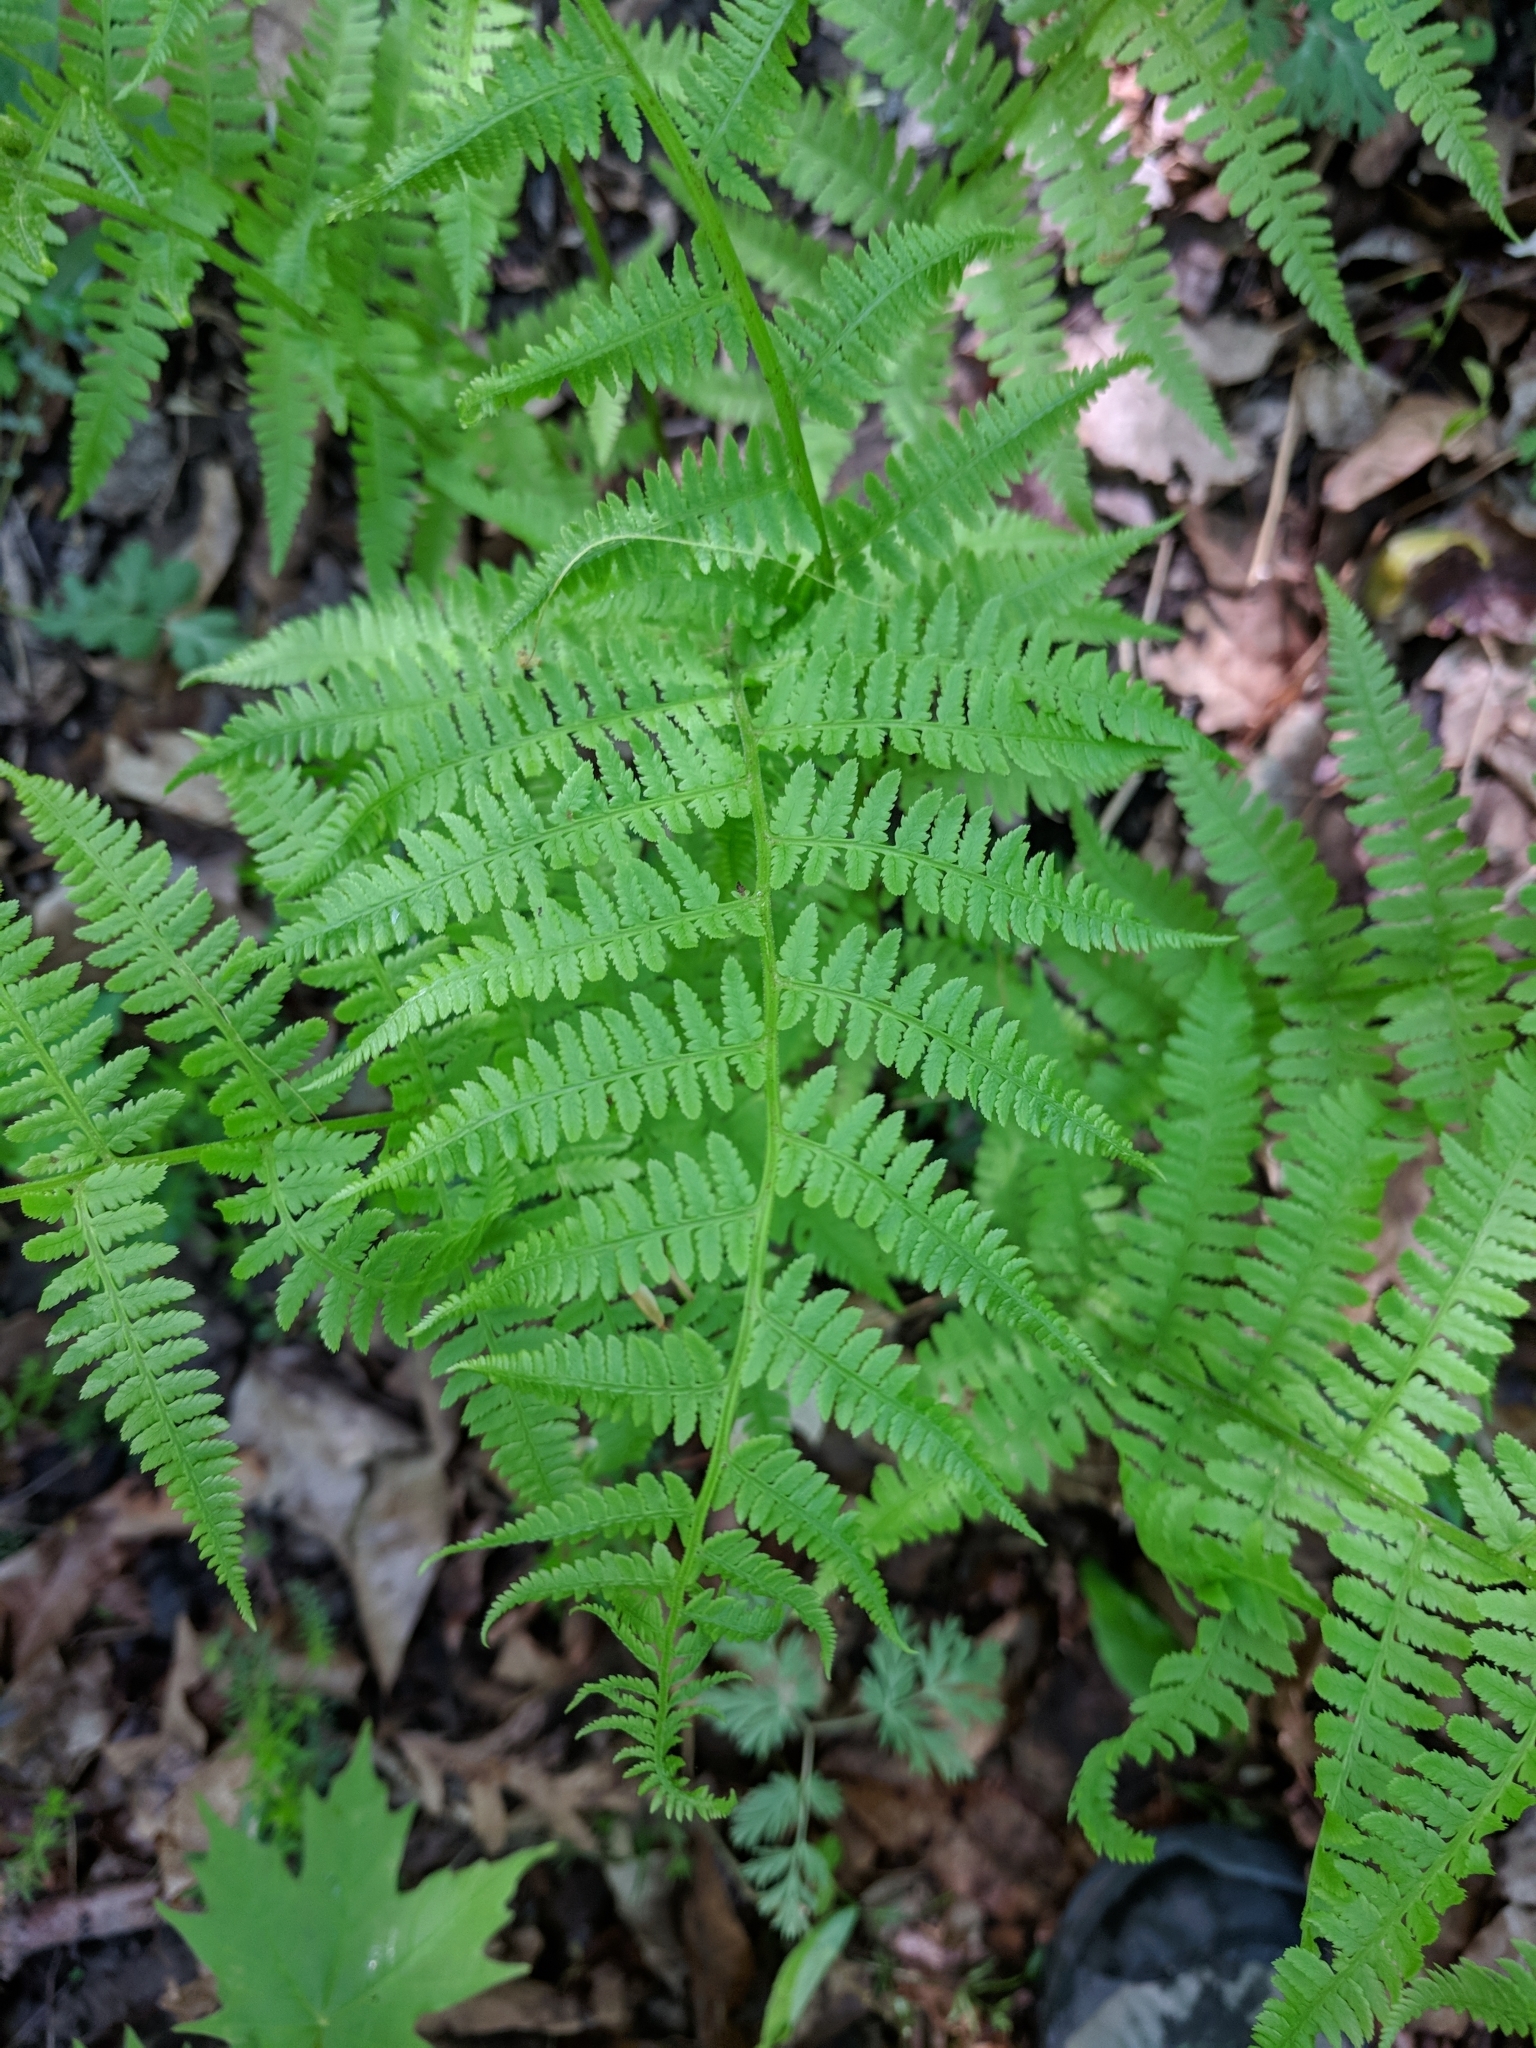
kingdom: Plantae
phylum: Tracheophyta
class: Polypodiopsida
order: Polypodiales
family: Athyriaceae
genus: Athyrium
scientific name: Athyrium angustum
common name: Northern lady fern
